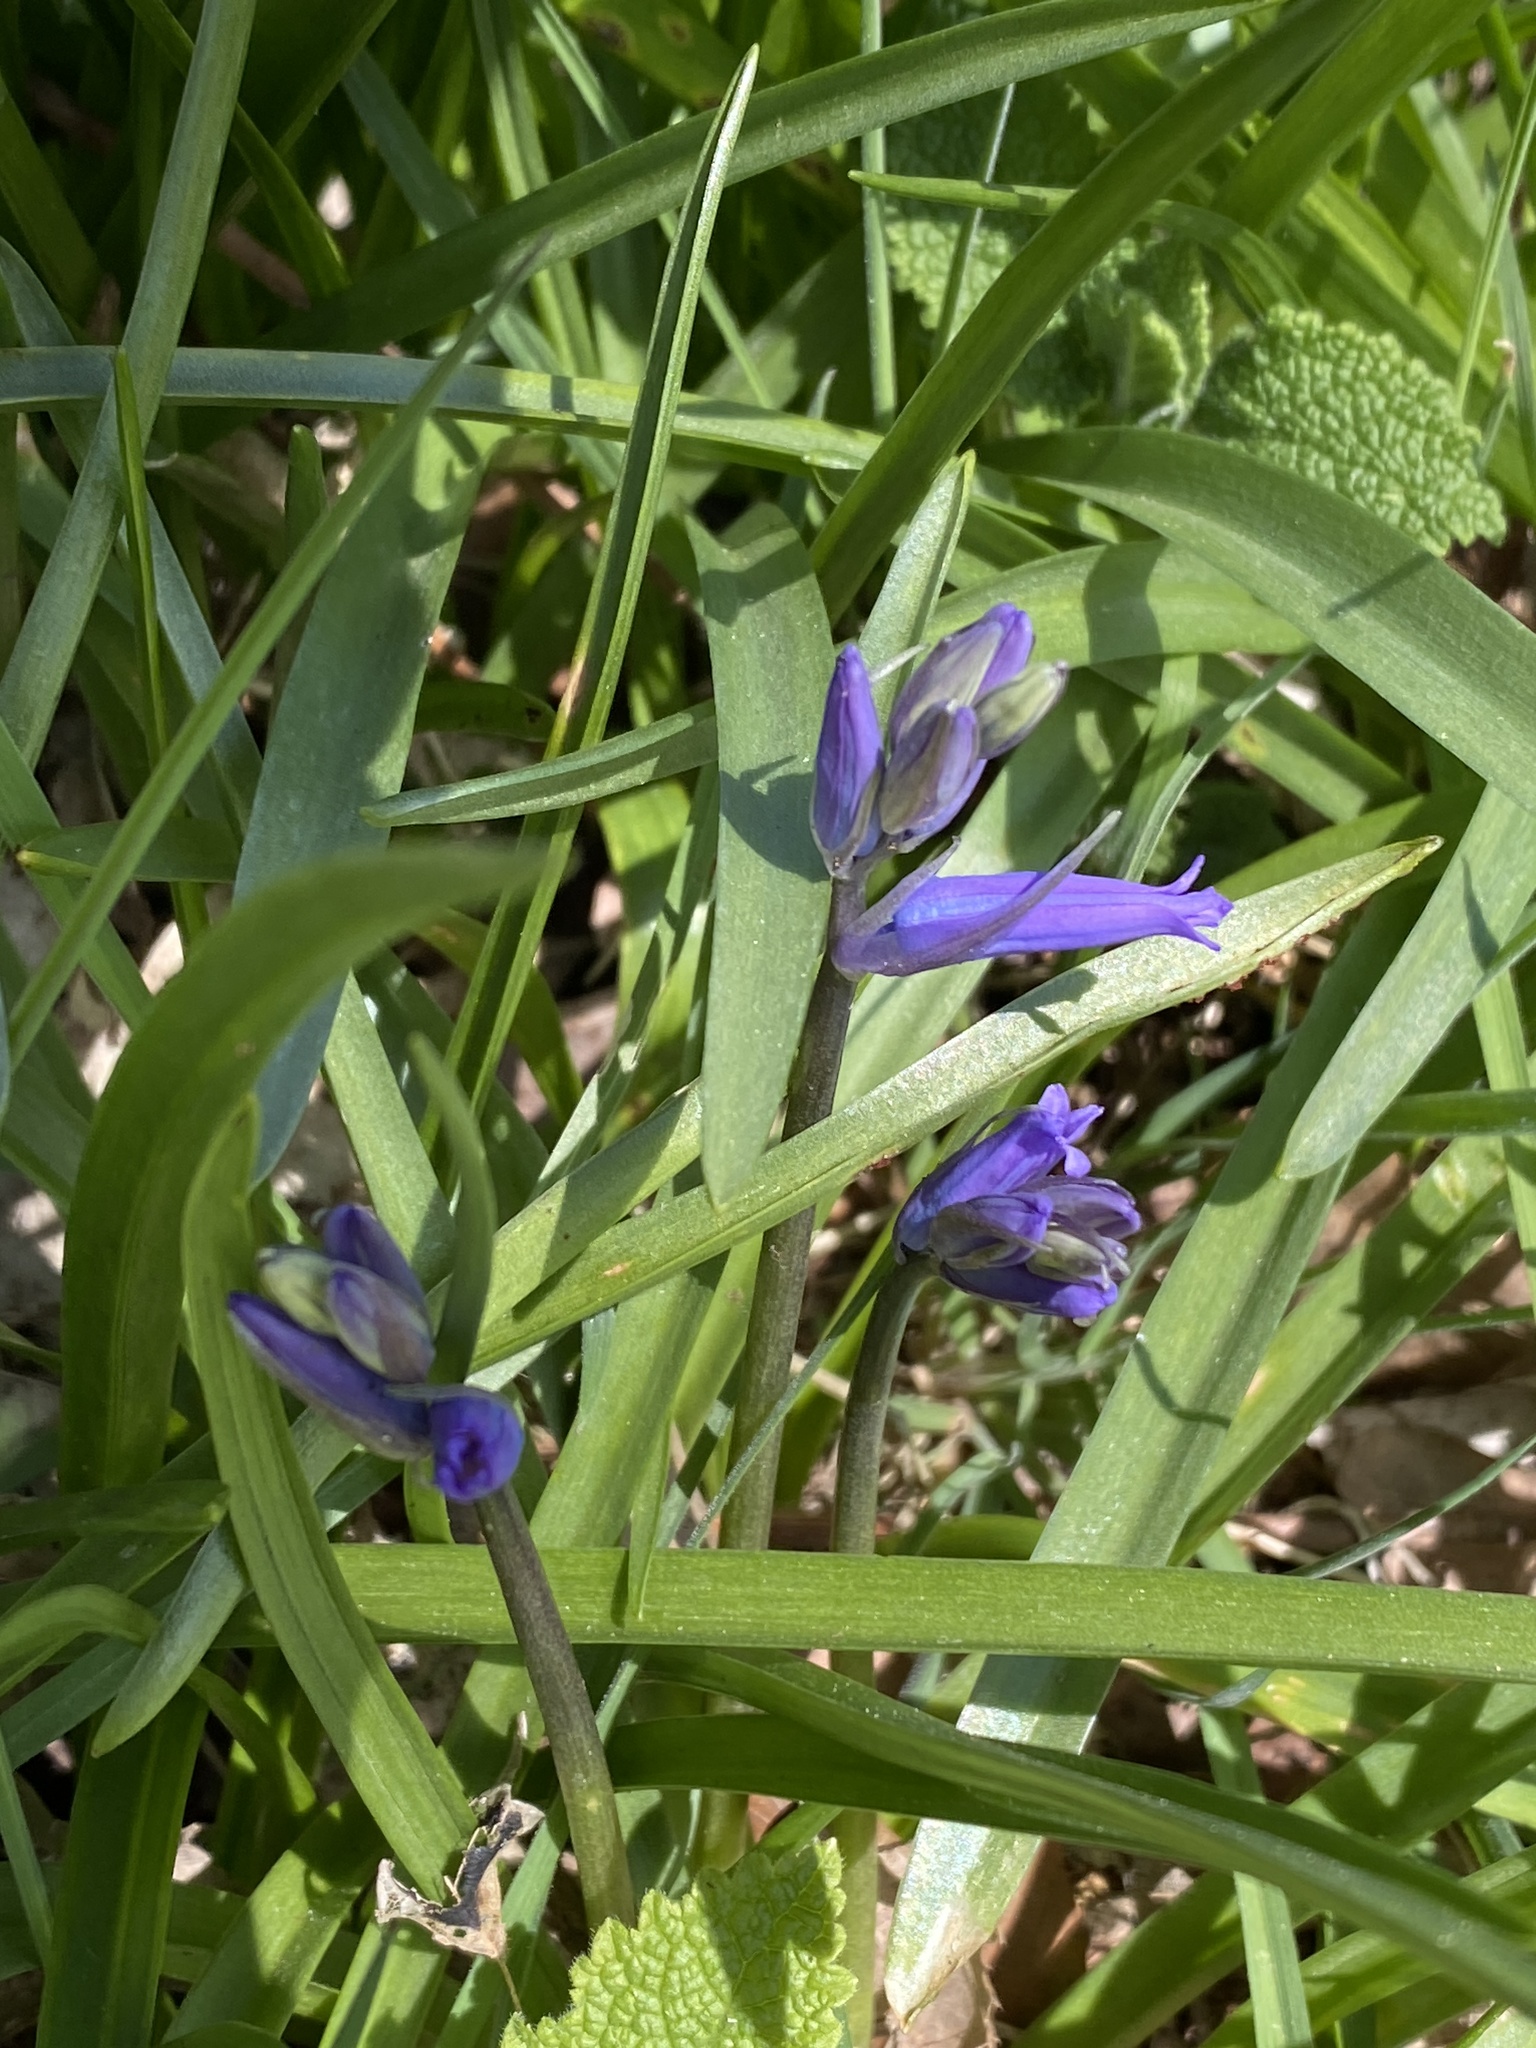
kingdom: Plantae
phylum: Tracheophyta
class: Liliopsida
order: Asparagales
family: Asparagaceae
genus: Hyacinthoides
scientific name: Hyacinthoides non-scripta
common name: Bluebell
